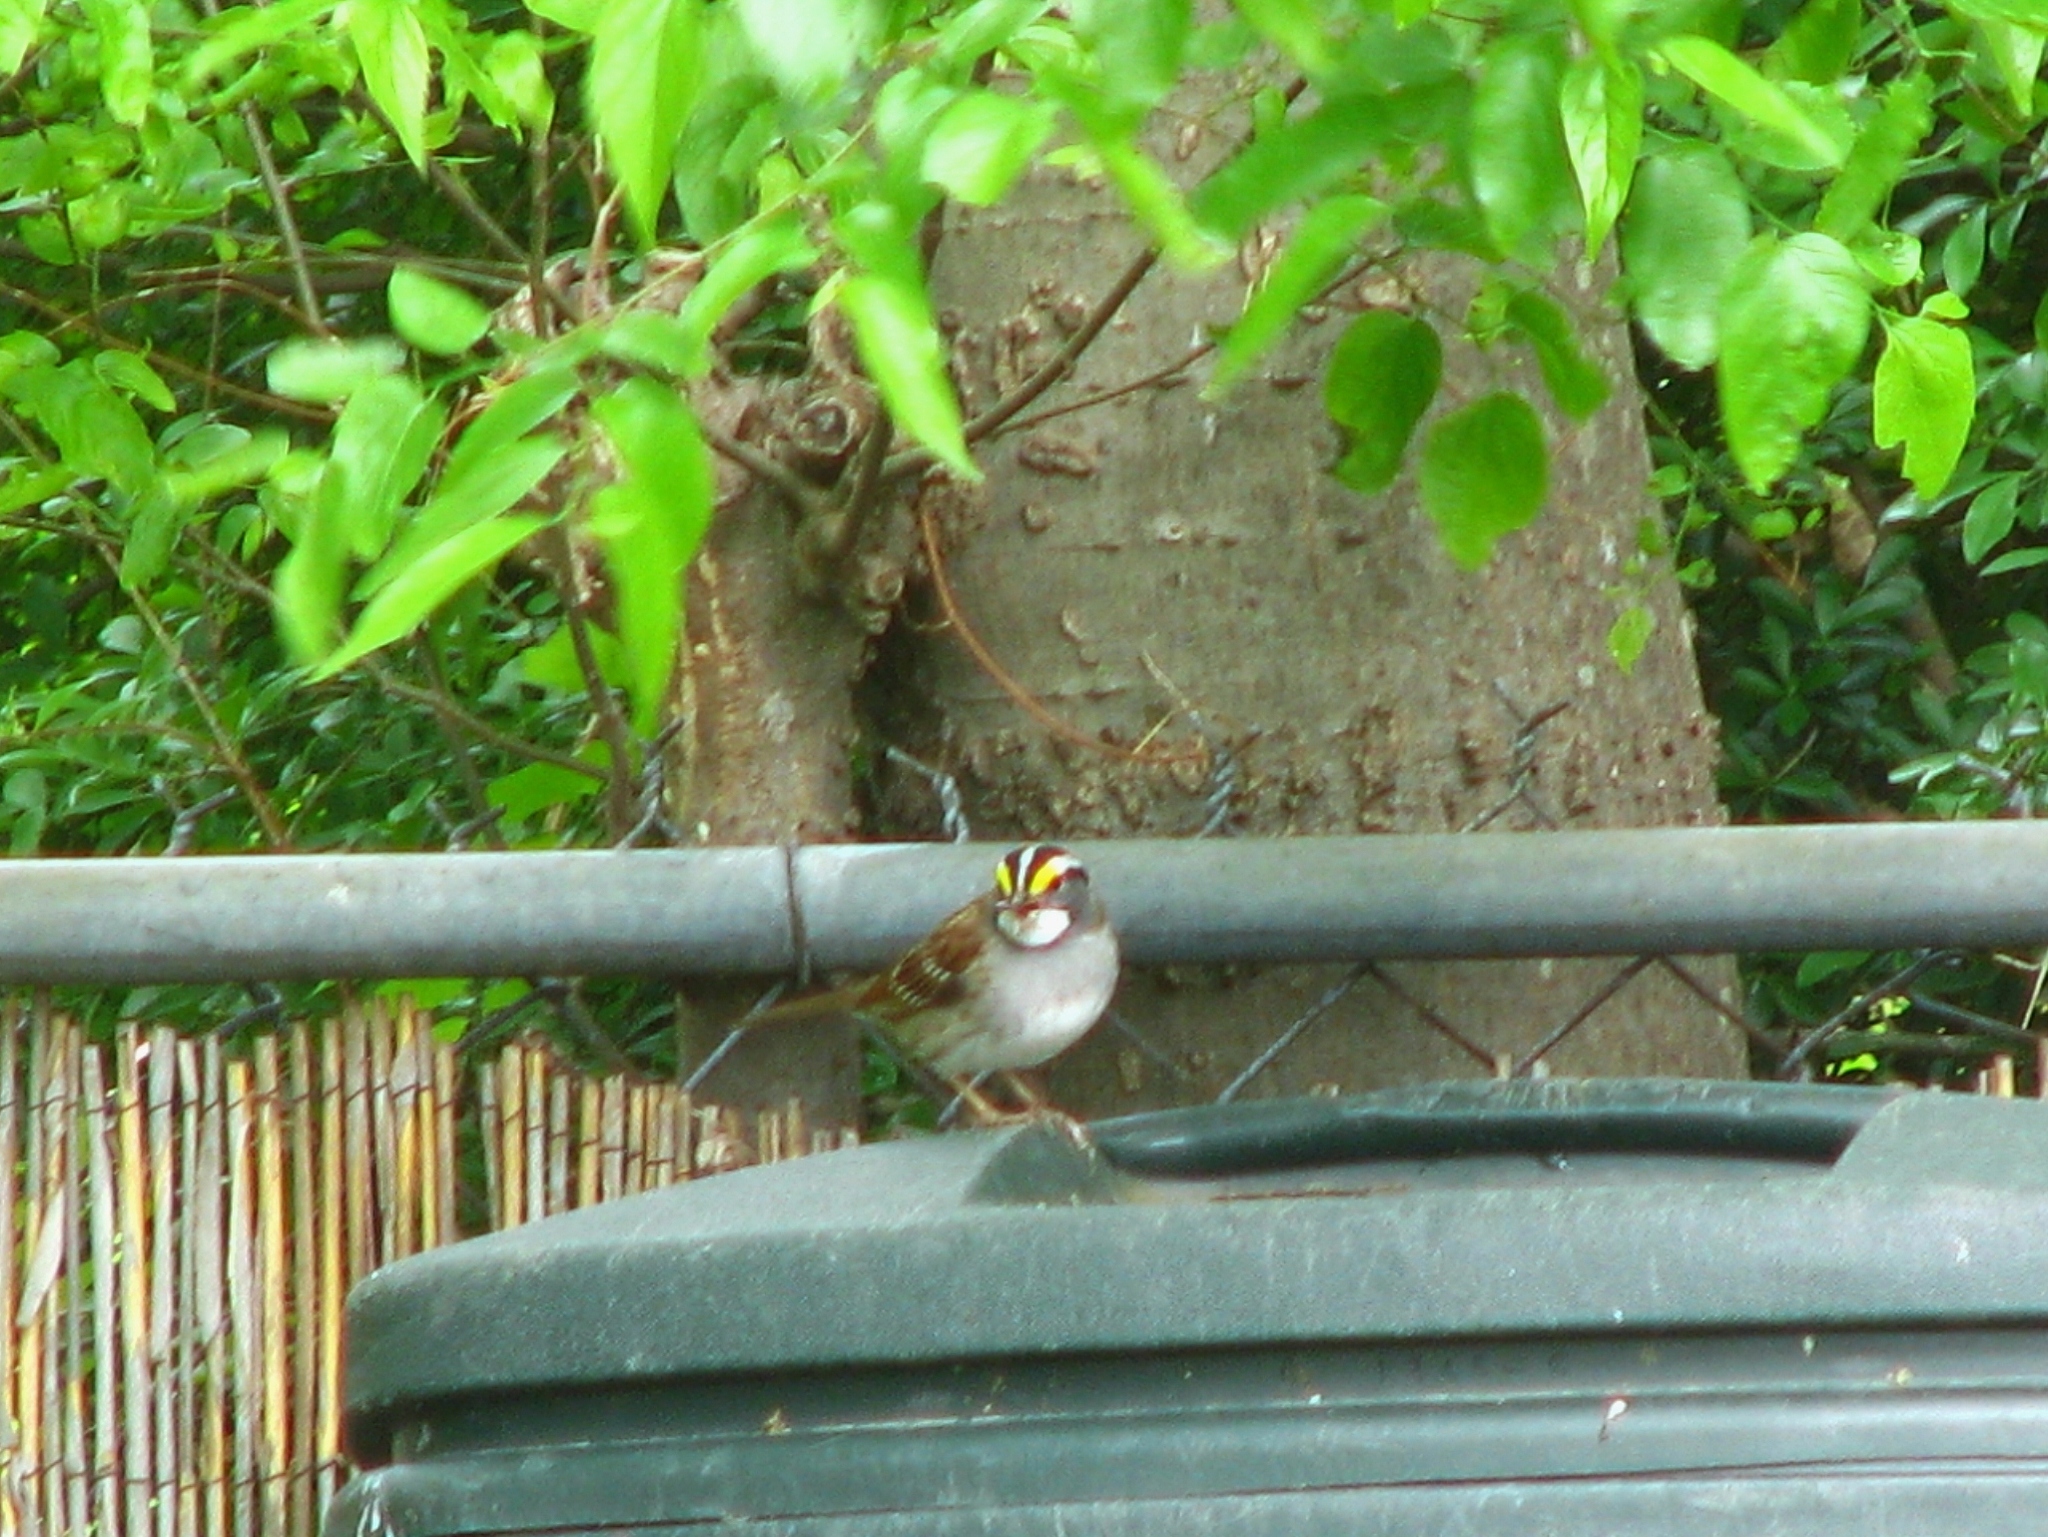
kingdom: Animalia
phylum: Chordata
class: Aves
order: Passeriformes
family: Passerellidae
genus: Zonotrichia
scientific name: Zonotrichia albicollis
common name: White-throated sparrow
